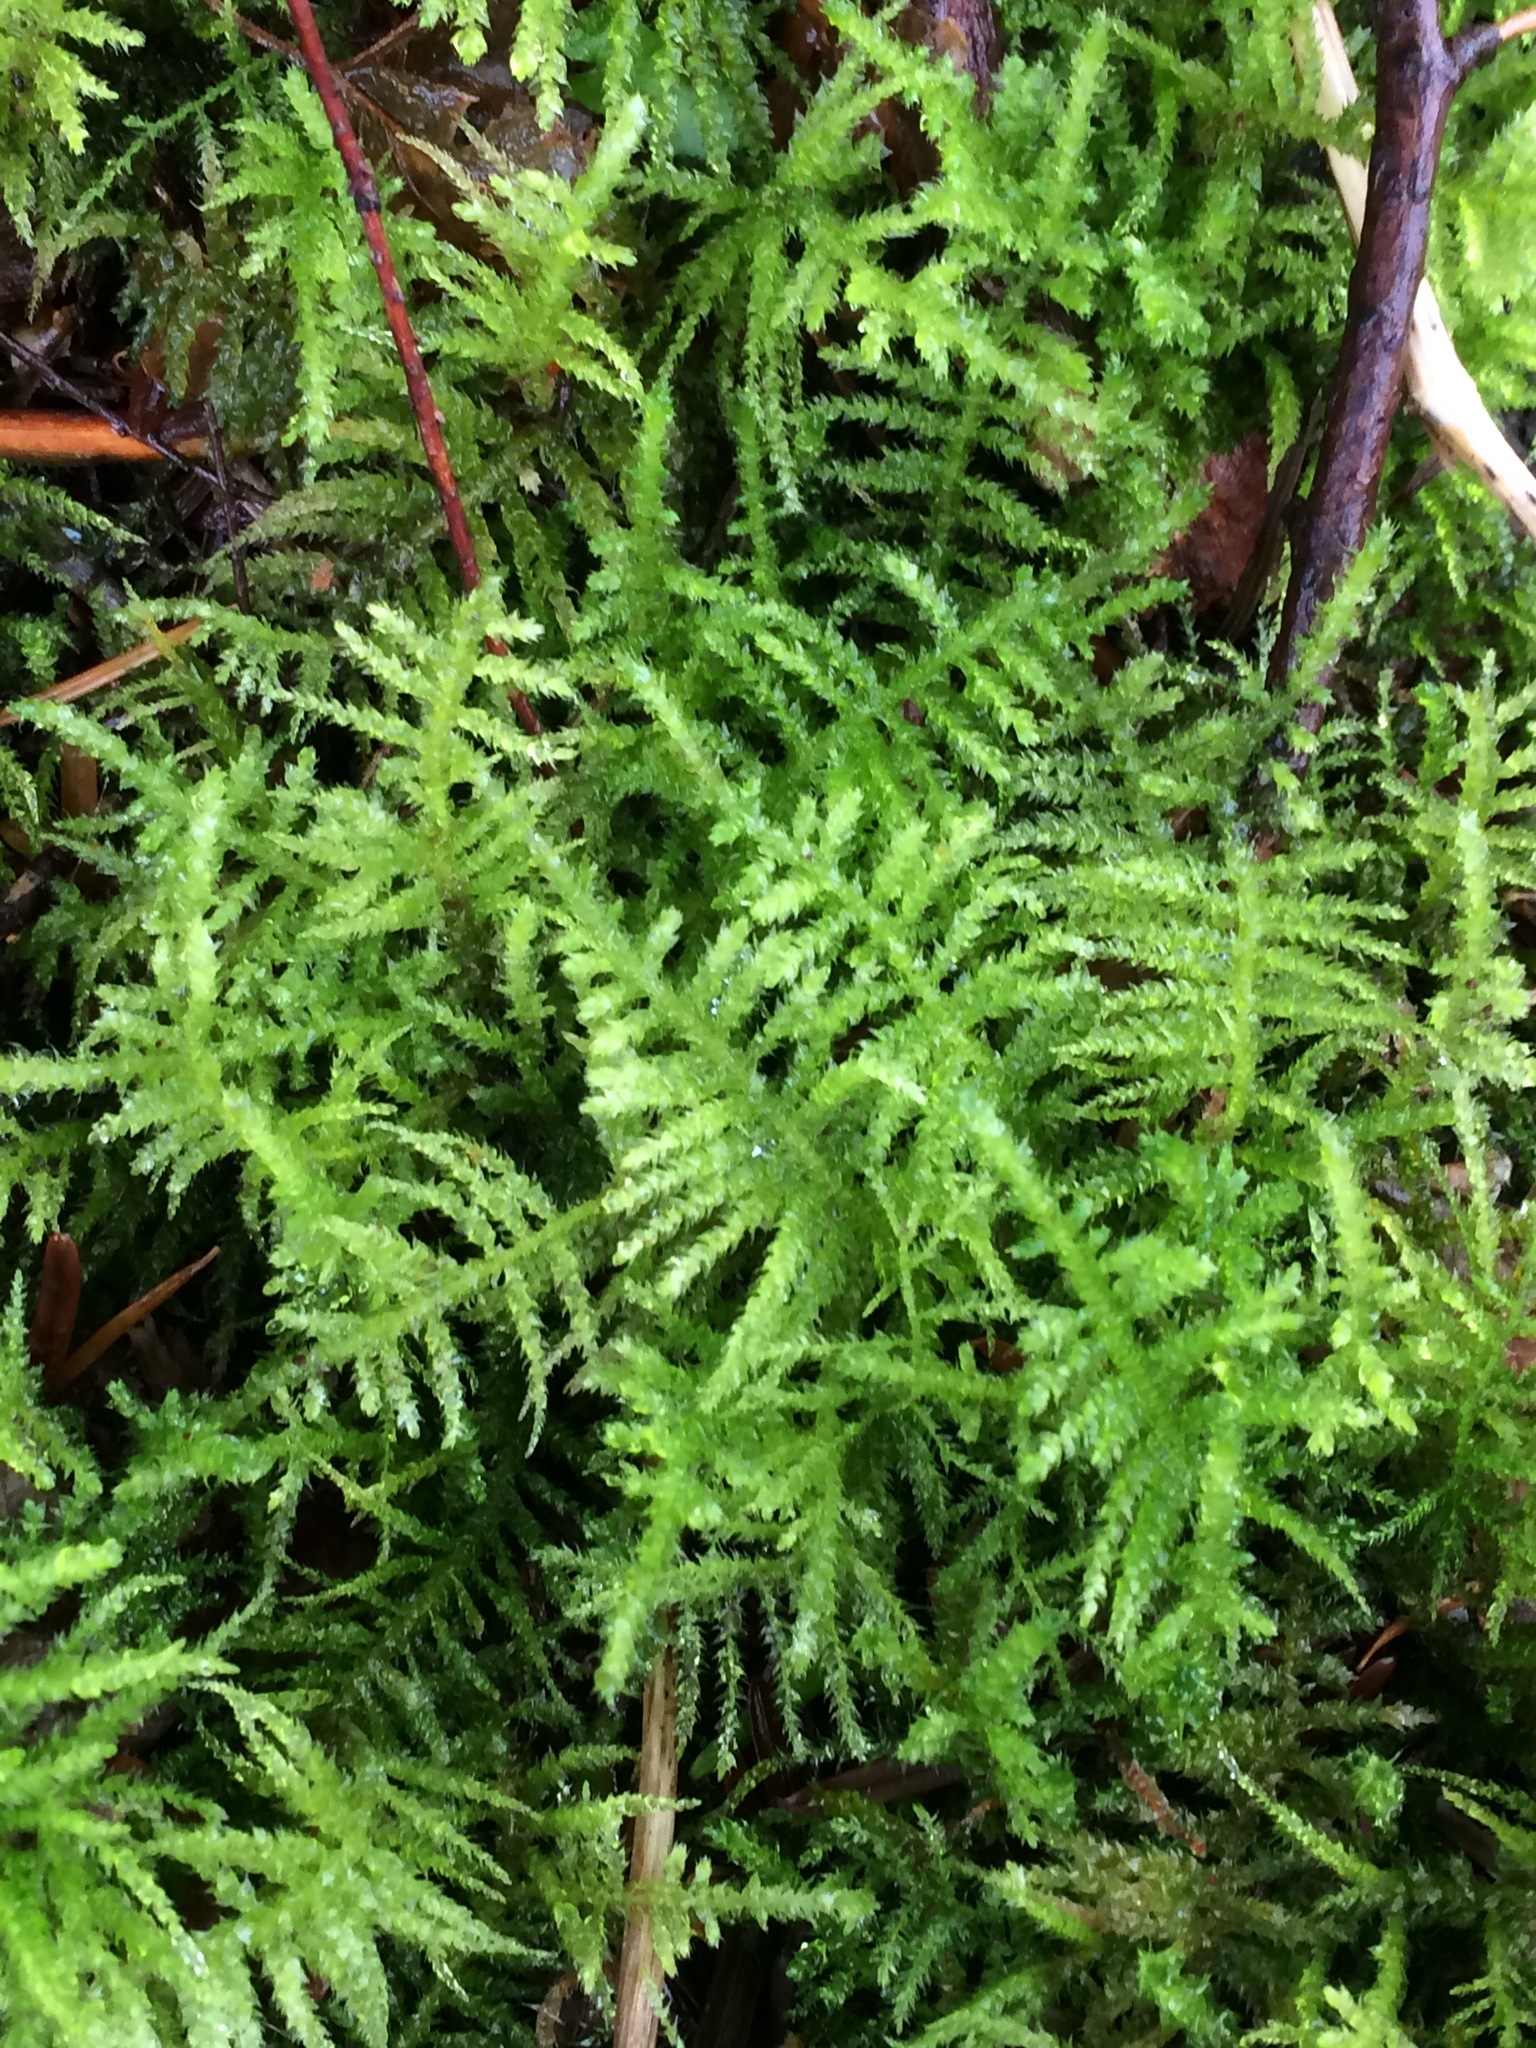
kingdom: Plantae
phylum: Bryophyta
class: Bryopsida
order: Hypnales
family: Brachytheciaceae
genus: Kindbergia
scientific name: Kindbergia oregana
